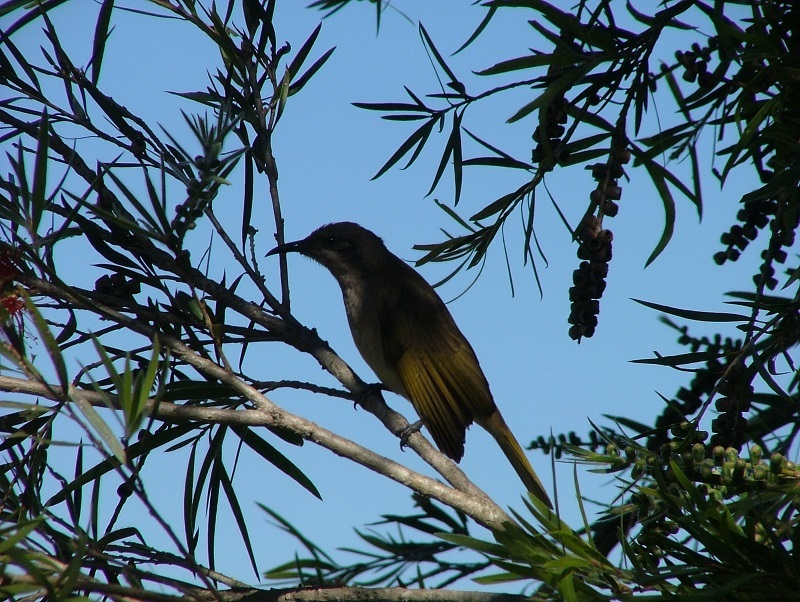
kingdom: Animalia
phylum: Chordata
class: Aves
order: Passeriformes
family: Meliphagidae
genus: Lichmera
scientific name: Lichmera indistincta
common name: Brown honeyeater
